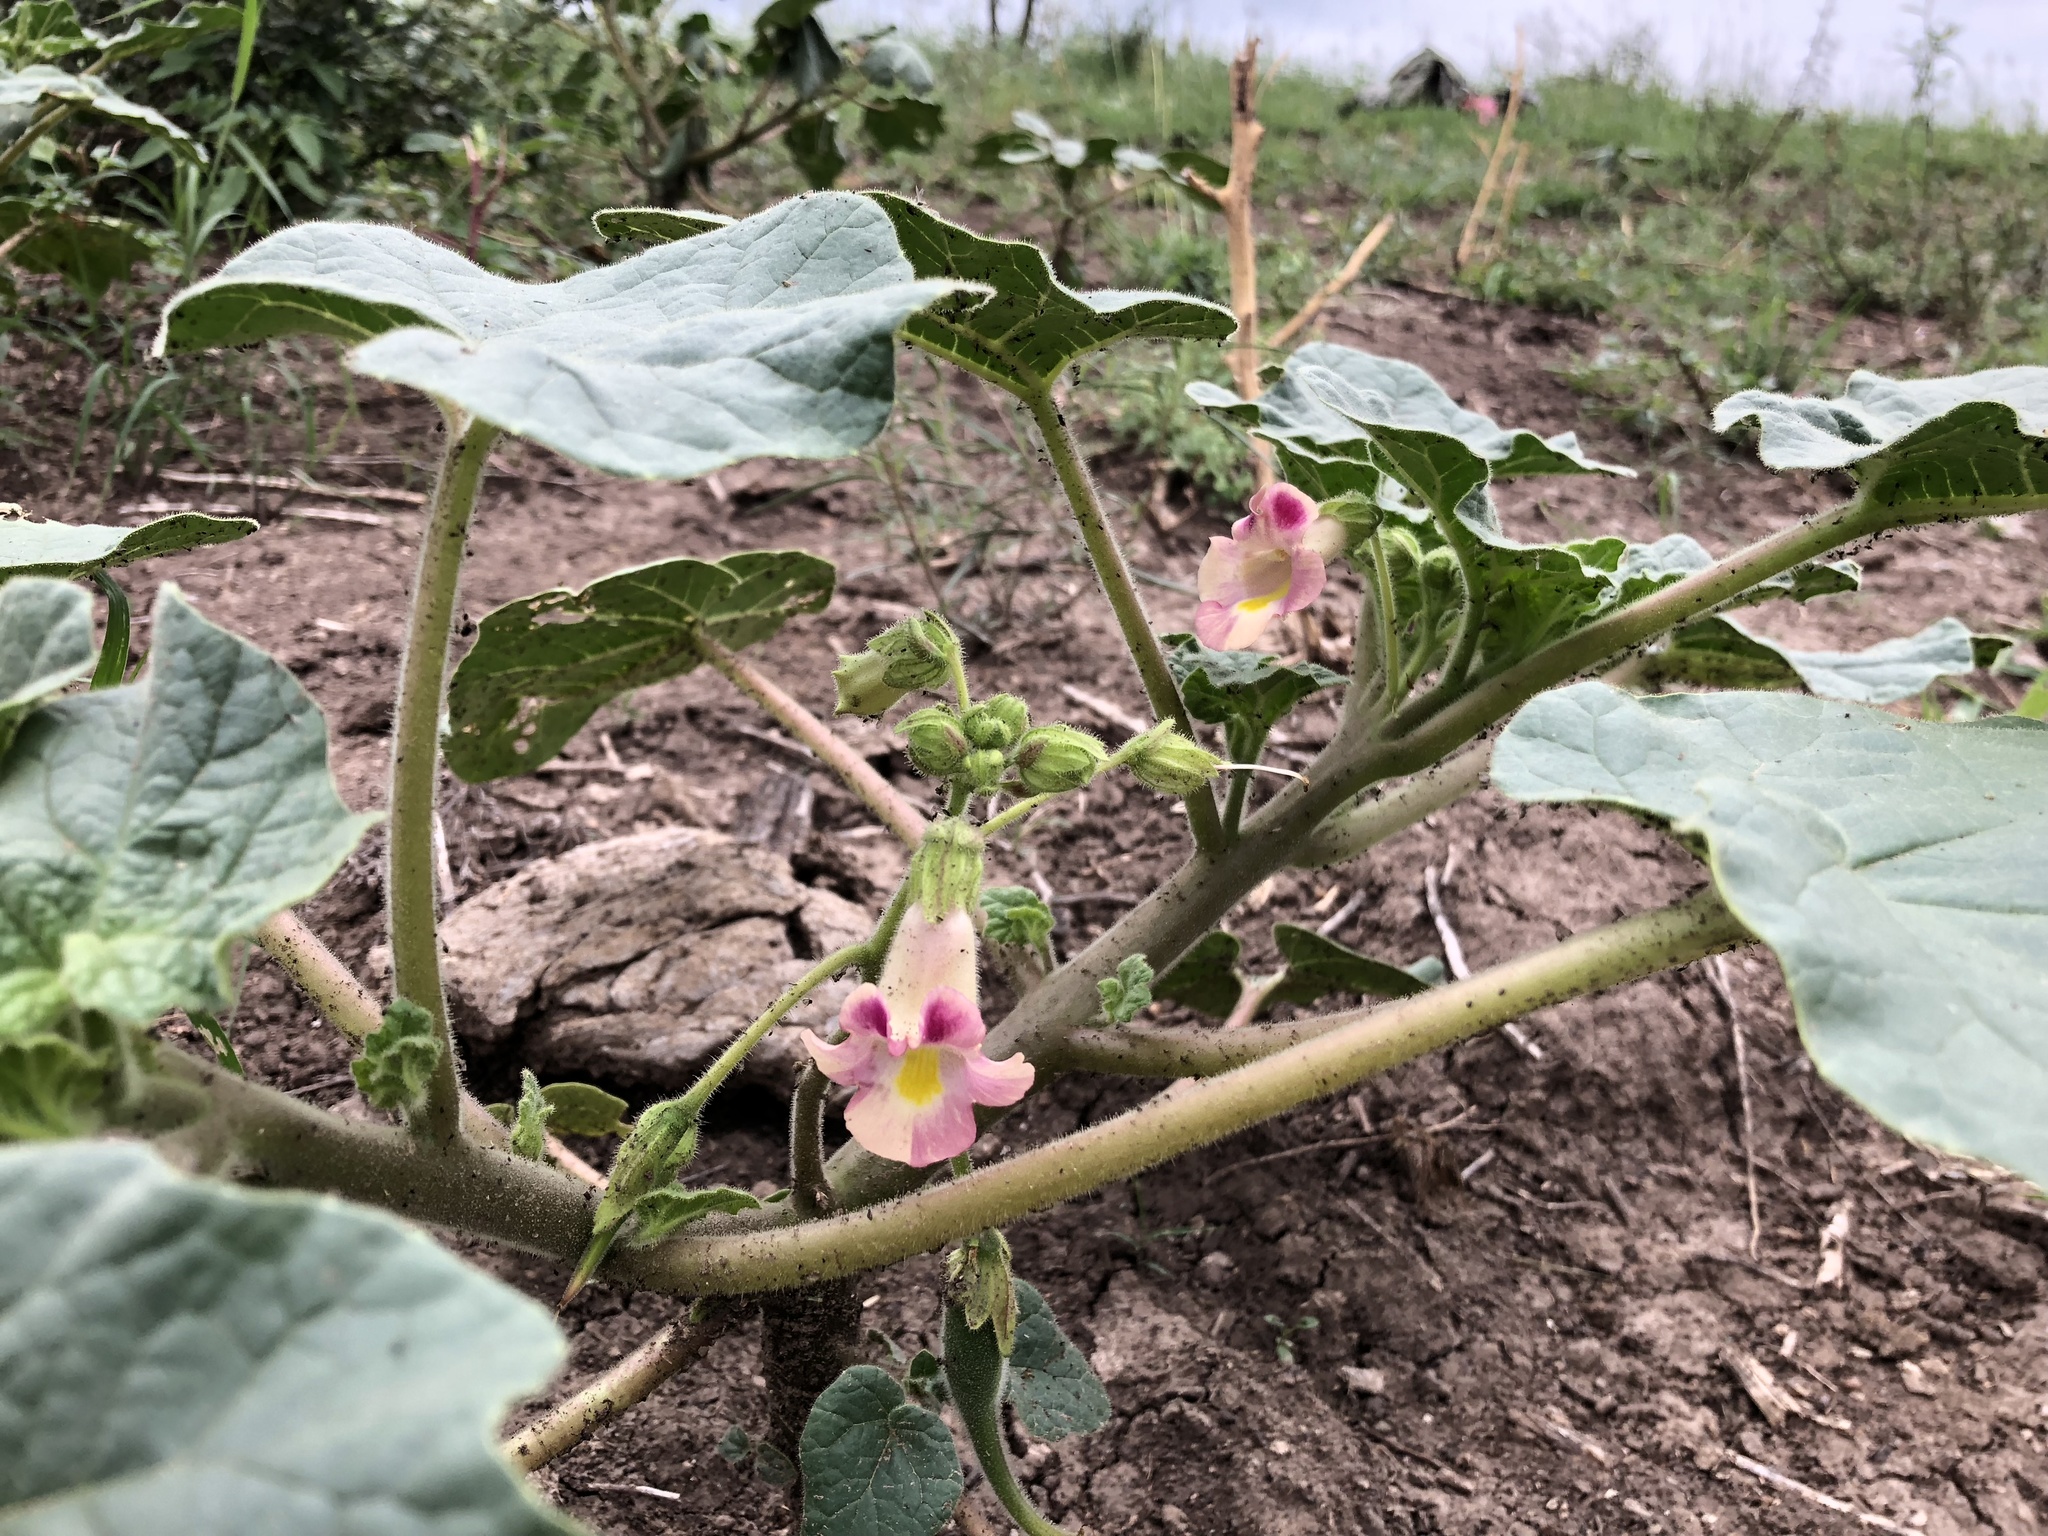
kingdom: Plantae
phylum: Tracheophyta
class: Magnoliopsida
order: Lamiales
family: Martyniaceae
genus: Proboscidea
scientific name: Proboscidea parviflora
